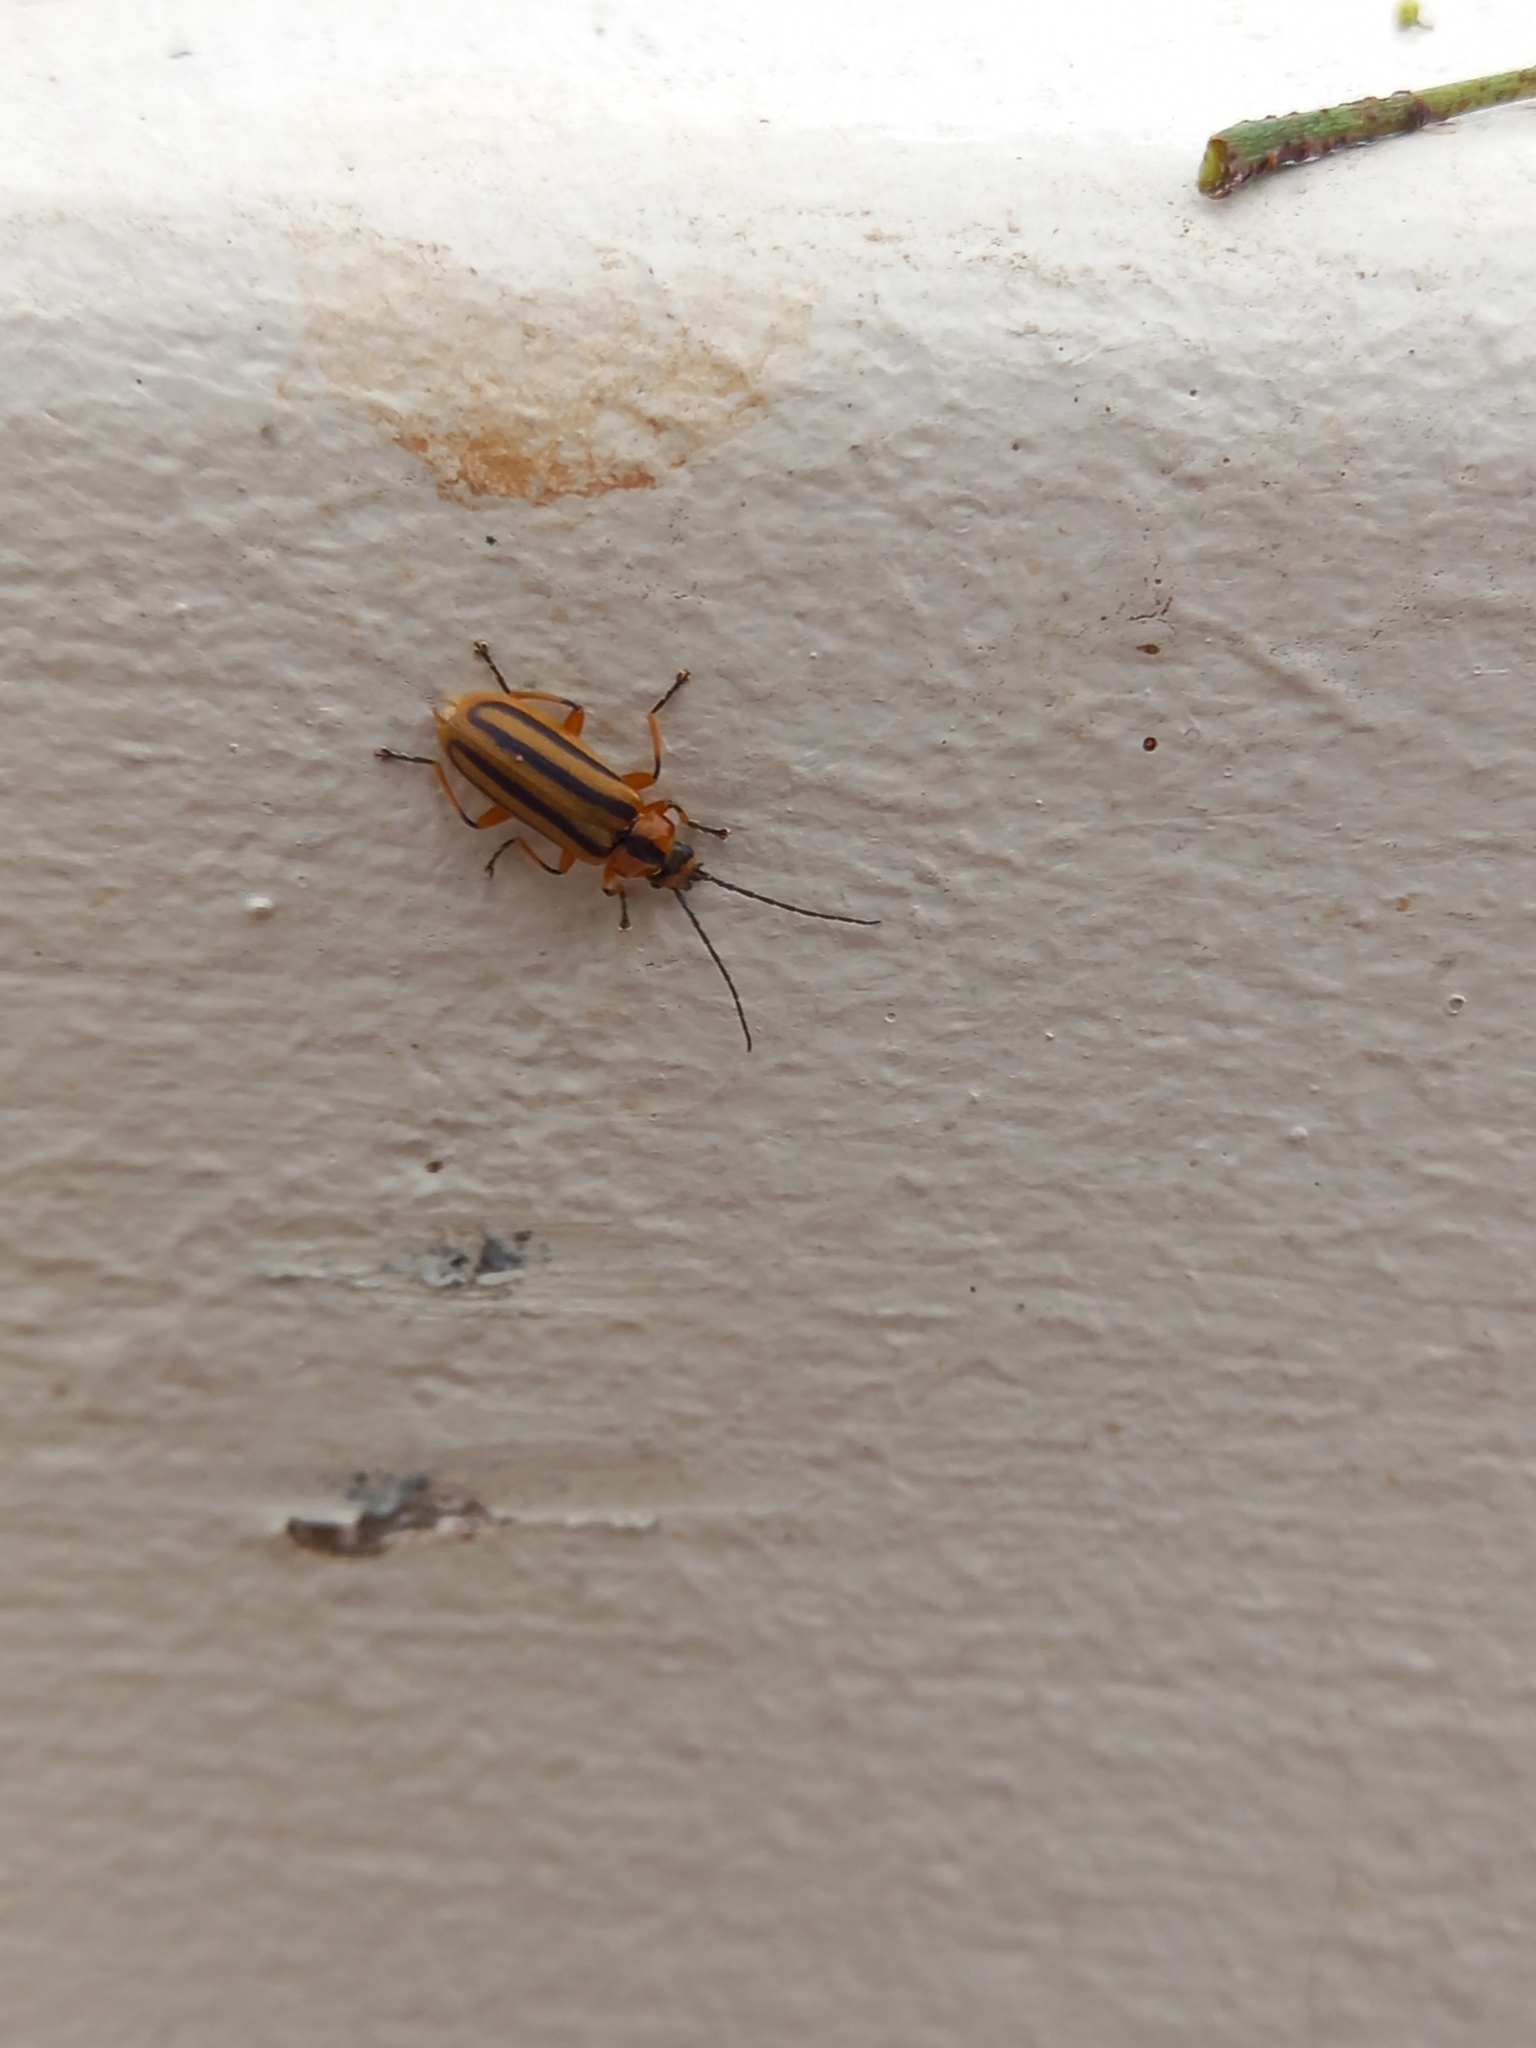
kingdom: Animalia
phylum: Arthropoda
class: Insecta
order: Coleoptera
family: Cantharidae
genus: Afronycha
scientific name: Afronycha
